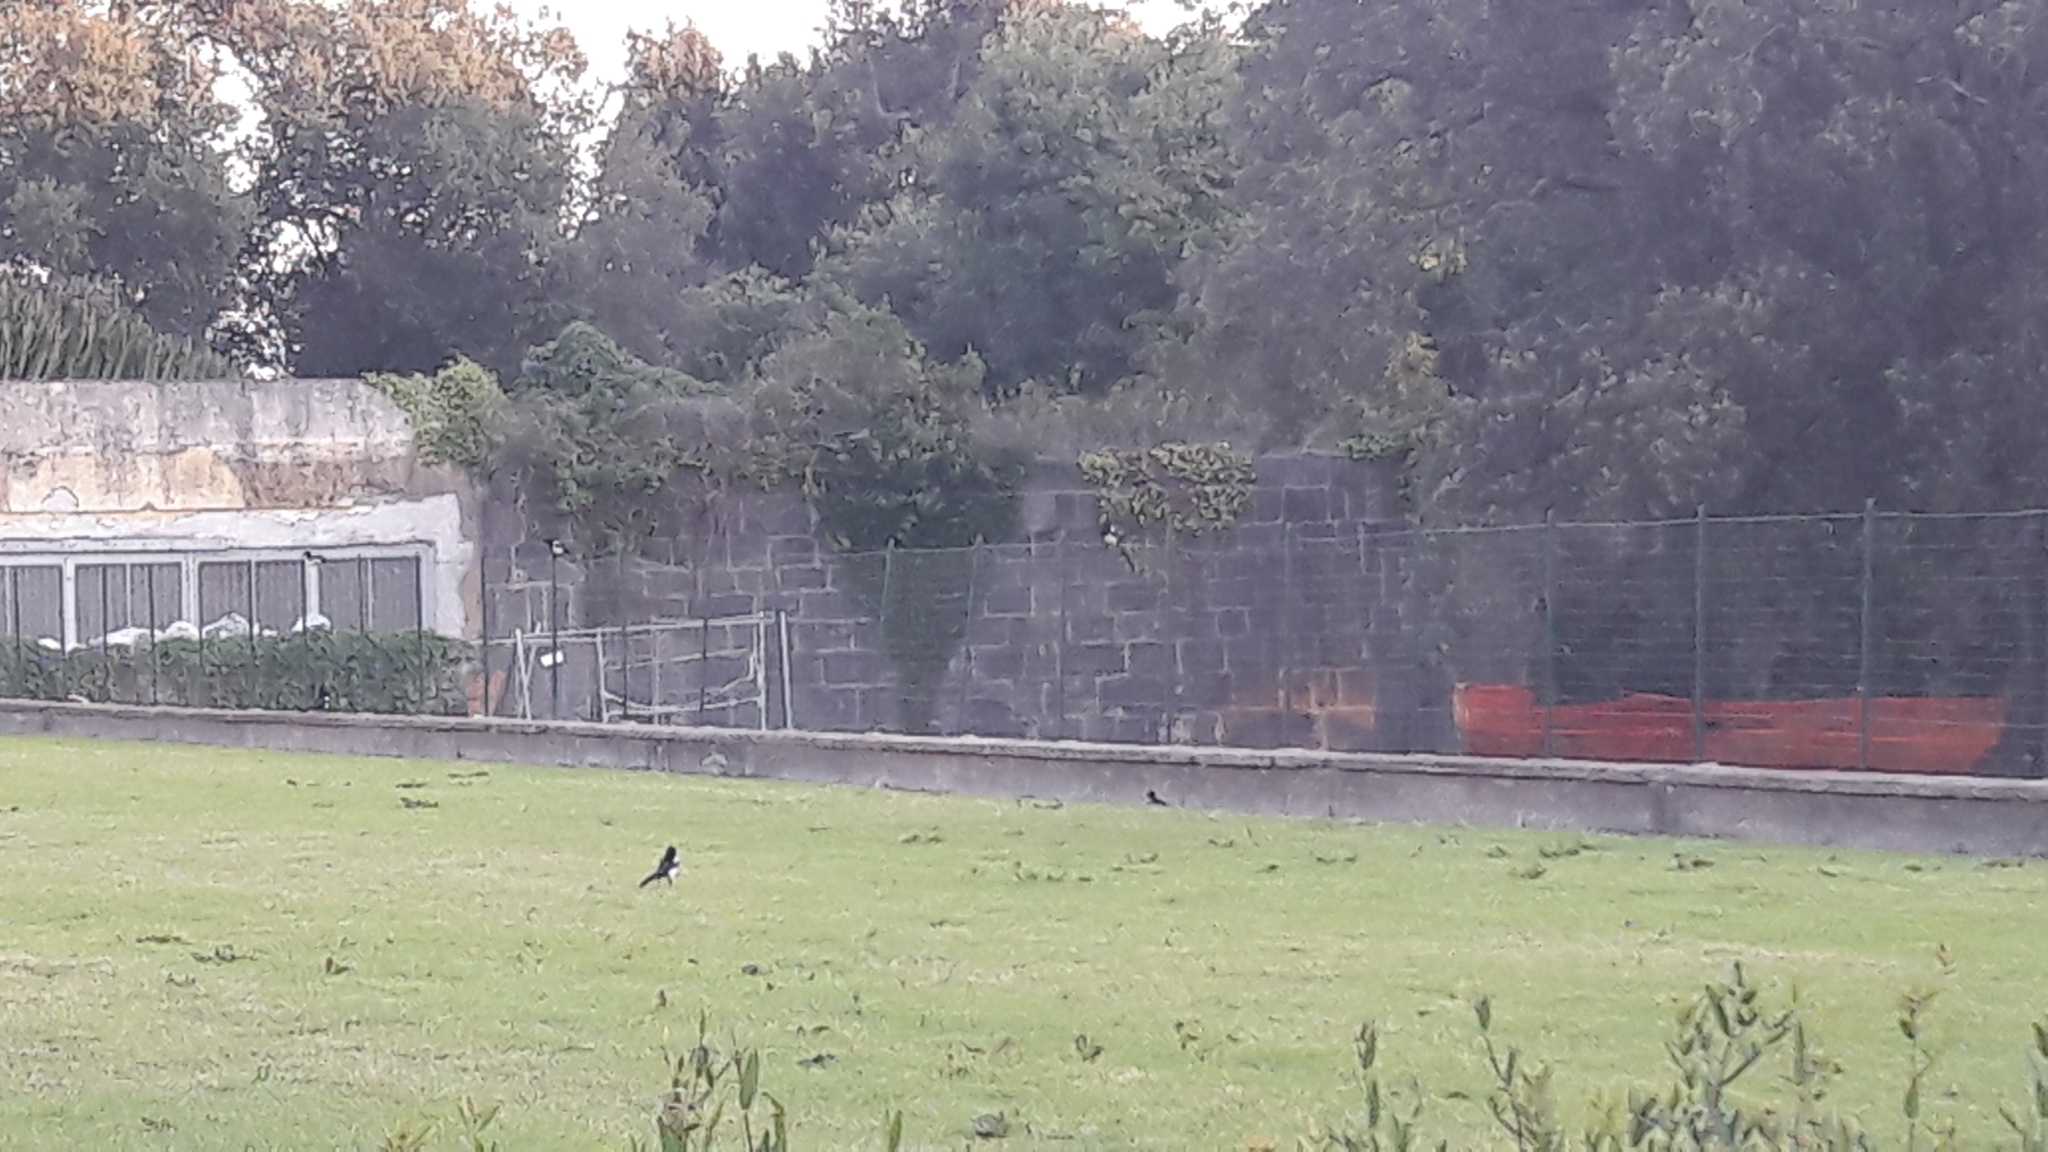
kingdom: Animalia
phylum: Chordata
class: Aves
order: Passeriformes
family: Corvidae
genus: Pica
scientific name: Pica pica
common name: Eurasian magpie
